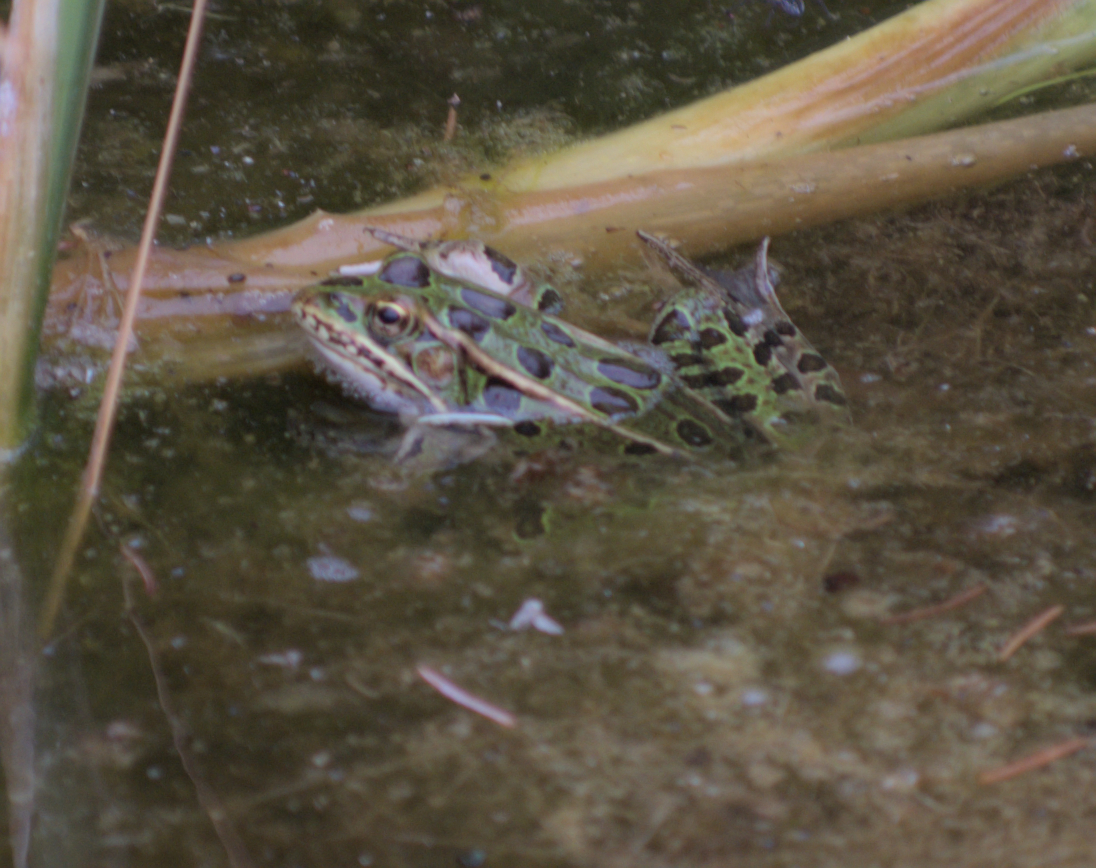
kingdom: Animalia
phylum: Chordata
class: Amphibia
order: Anura
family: Ranidae
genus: Lithobates
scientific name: Lithobates pipiens
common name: Northern leopard frog
